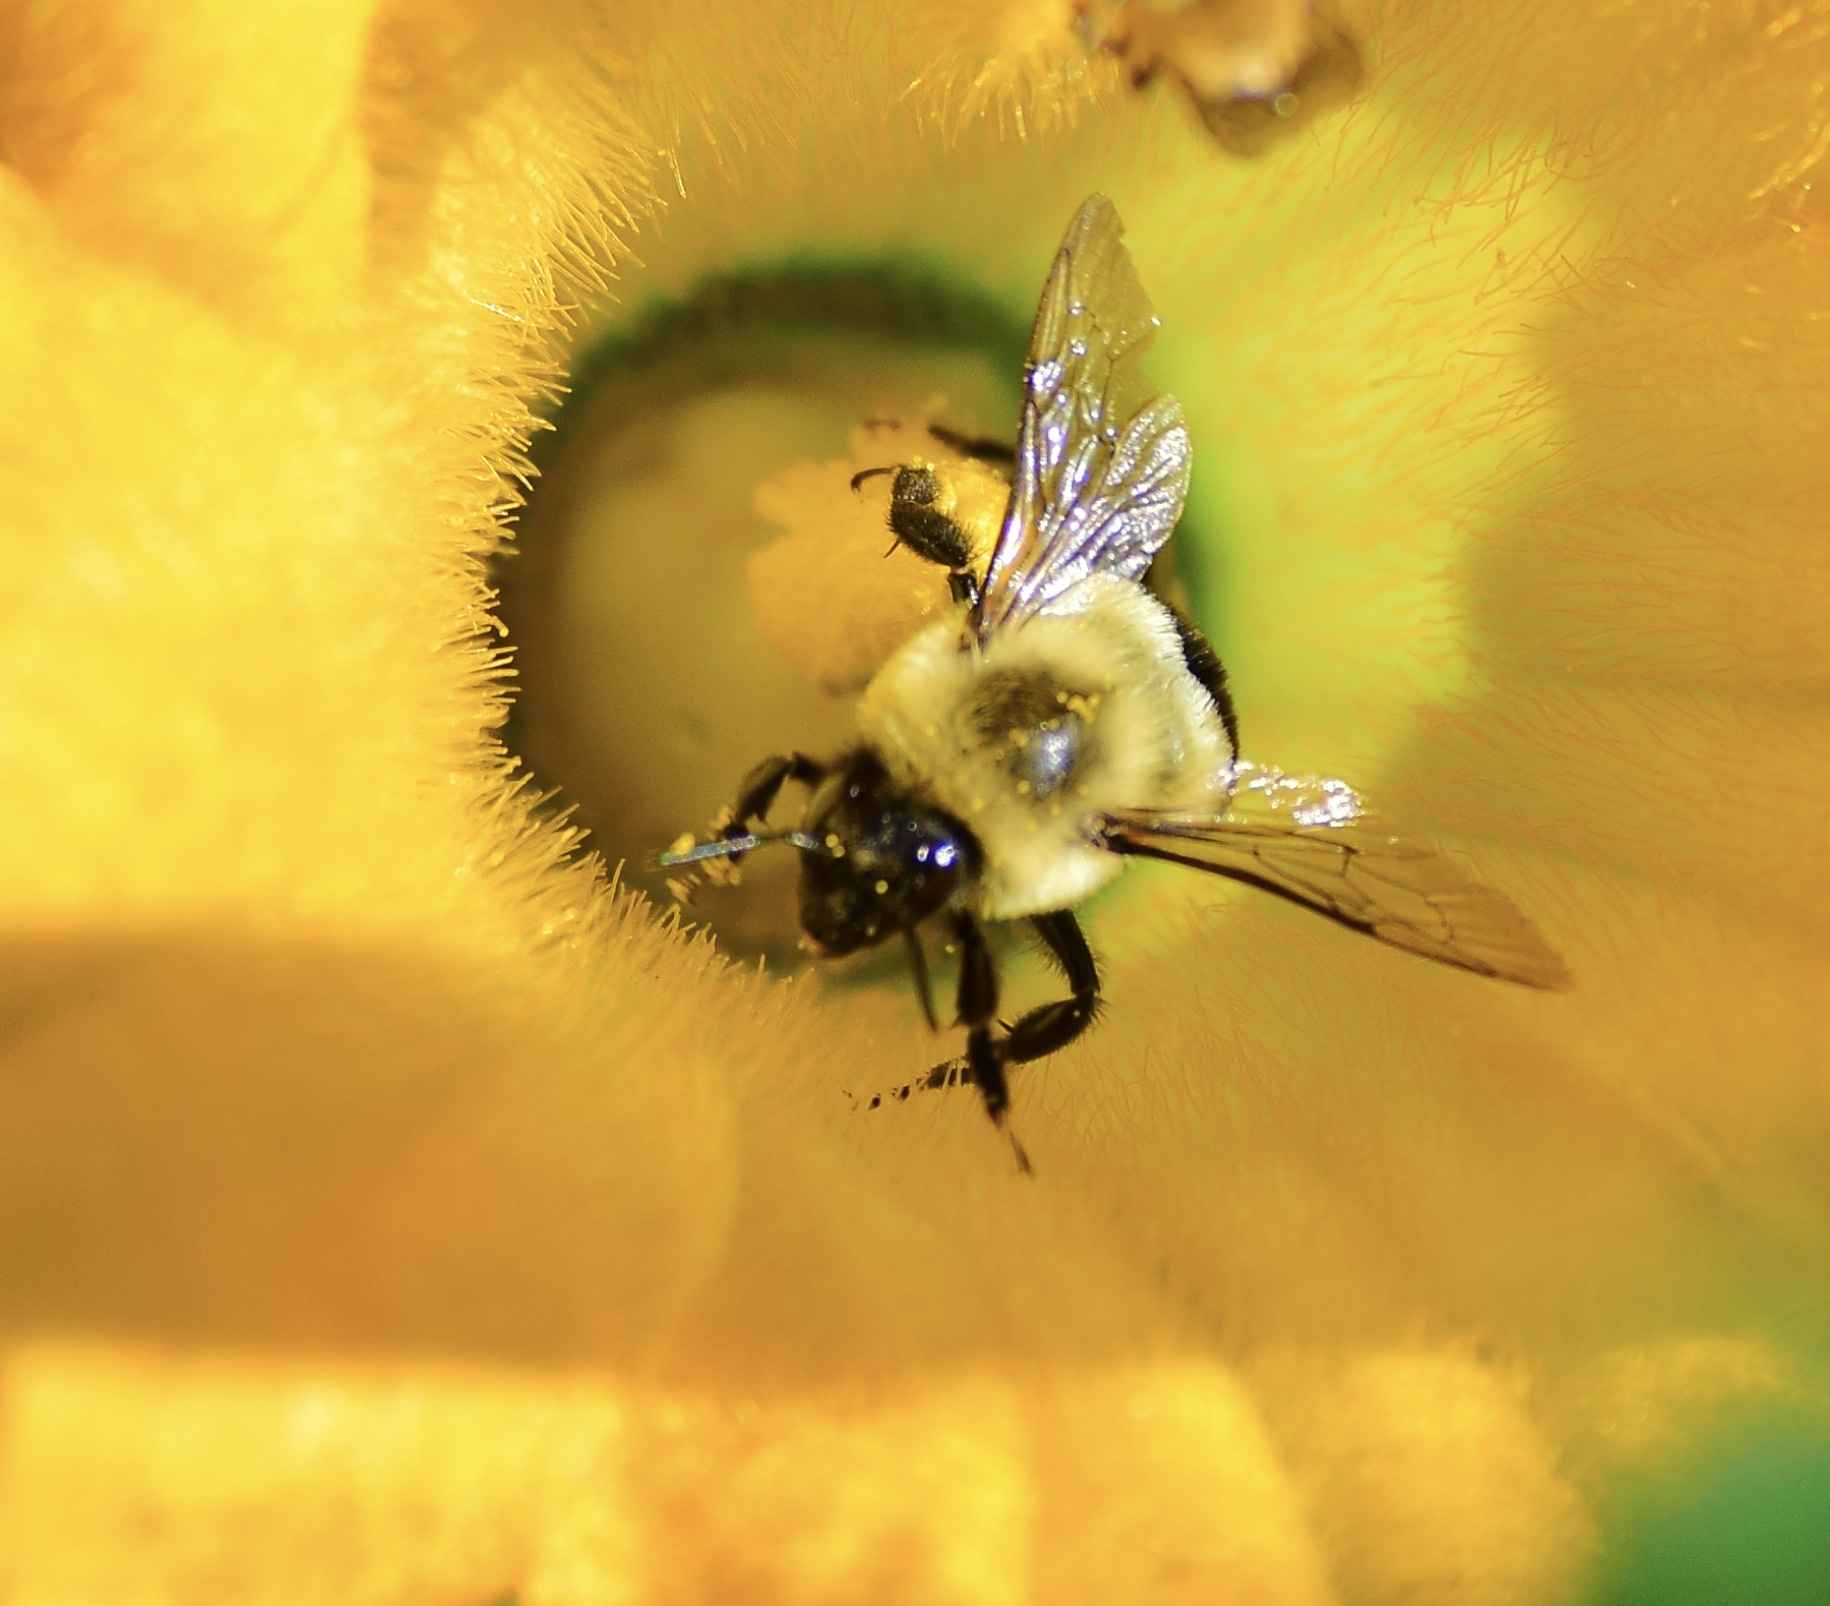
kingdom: Animalia
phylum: Arthropoda
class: Insecta
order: Hymenoptera
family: Apidae
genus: Bombus
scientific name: Bombus impatiens
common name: Common eastern bumble bee
